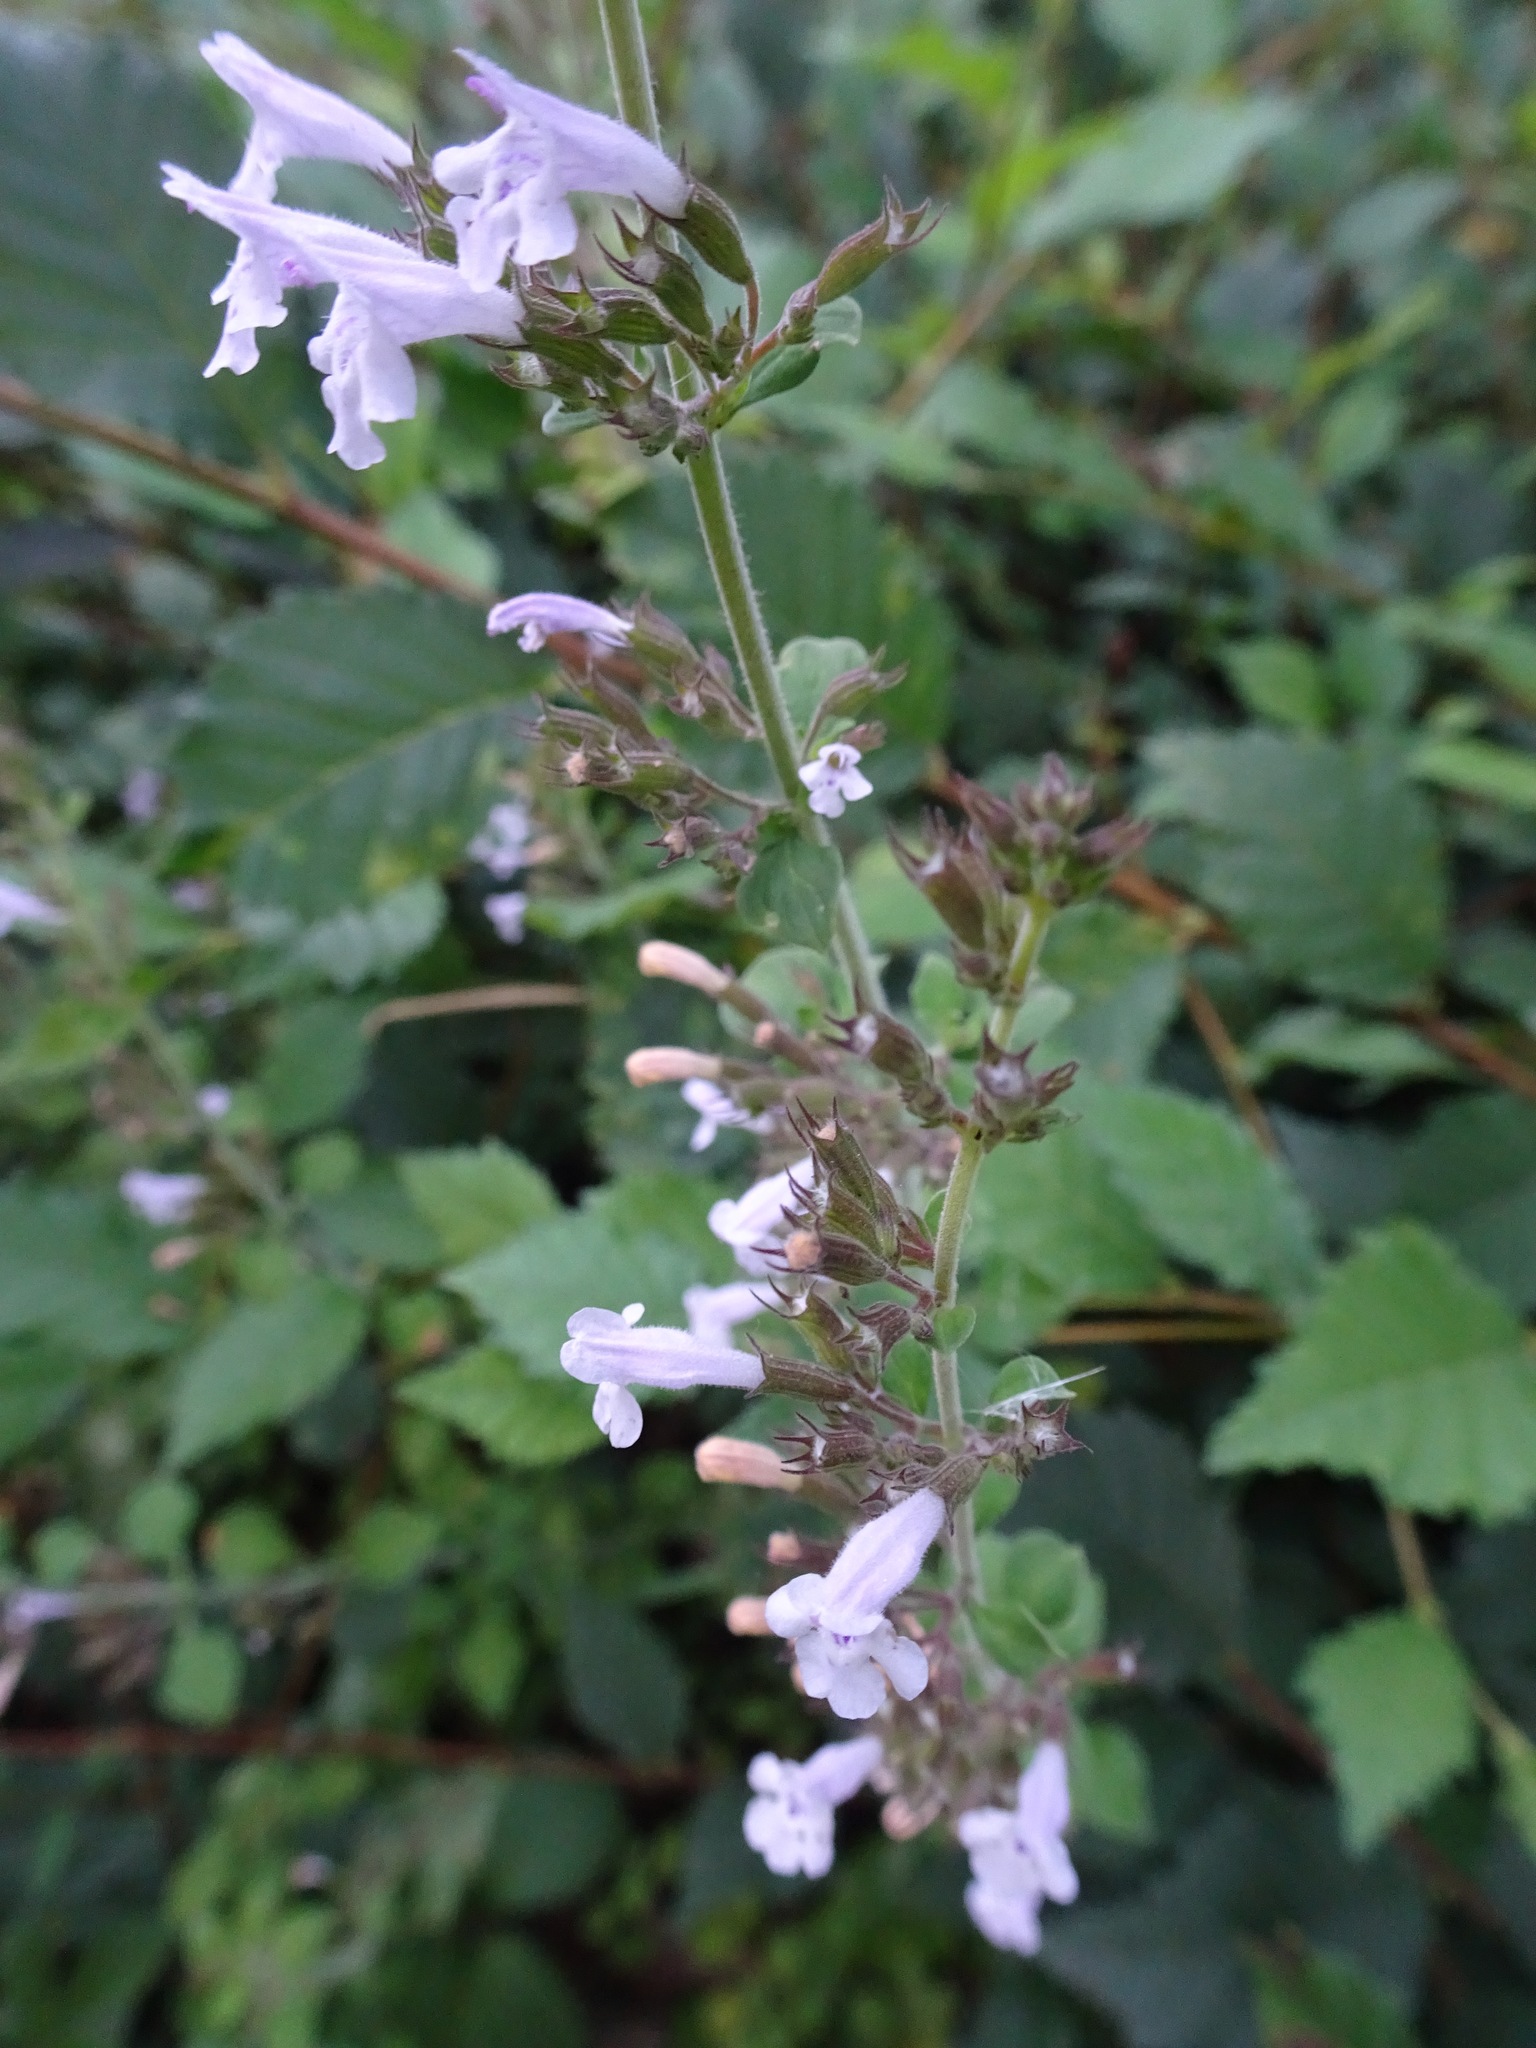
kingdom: Plantae
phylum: Tracheophyta
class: Magnoliopsida
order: Lamiales
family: Lamiaceae
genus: Clinopodium
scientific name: Clinopodium nepeta
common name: Lesser calamint
